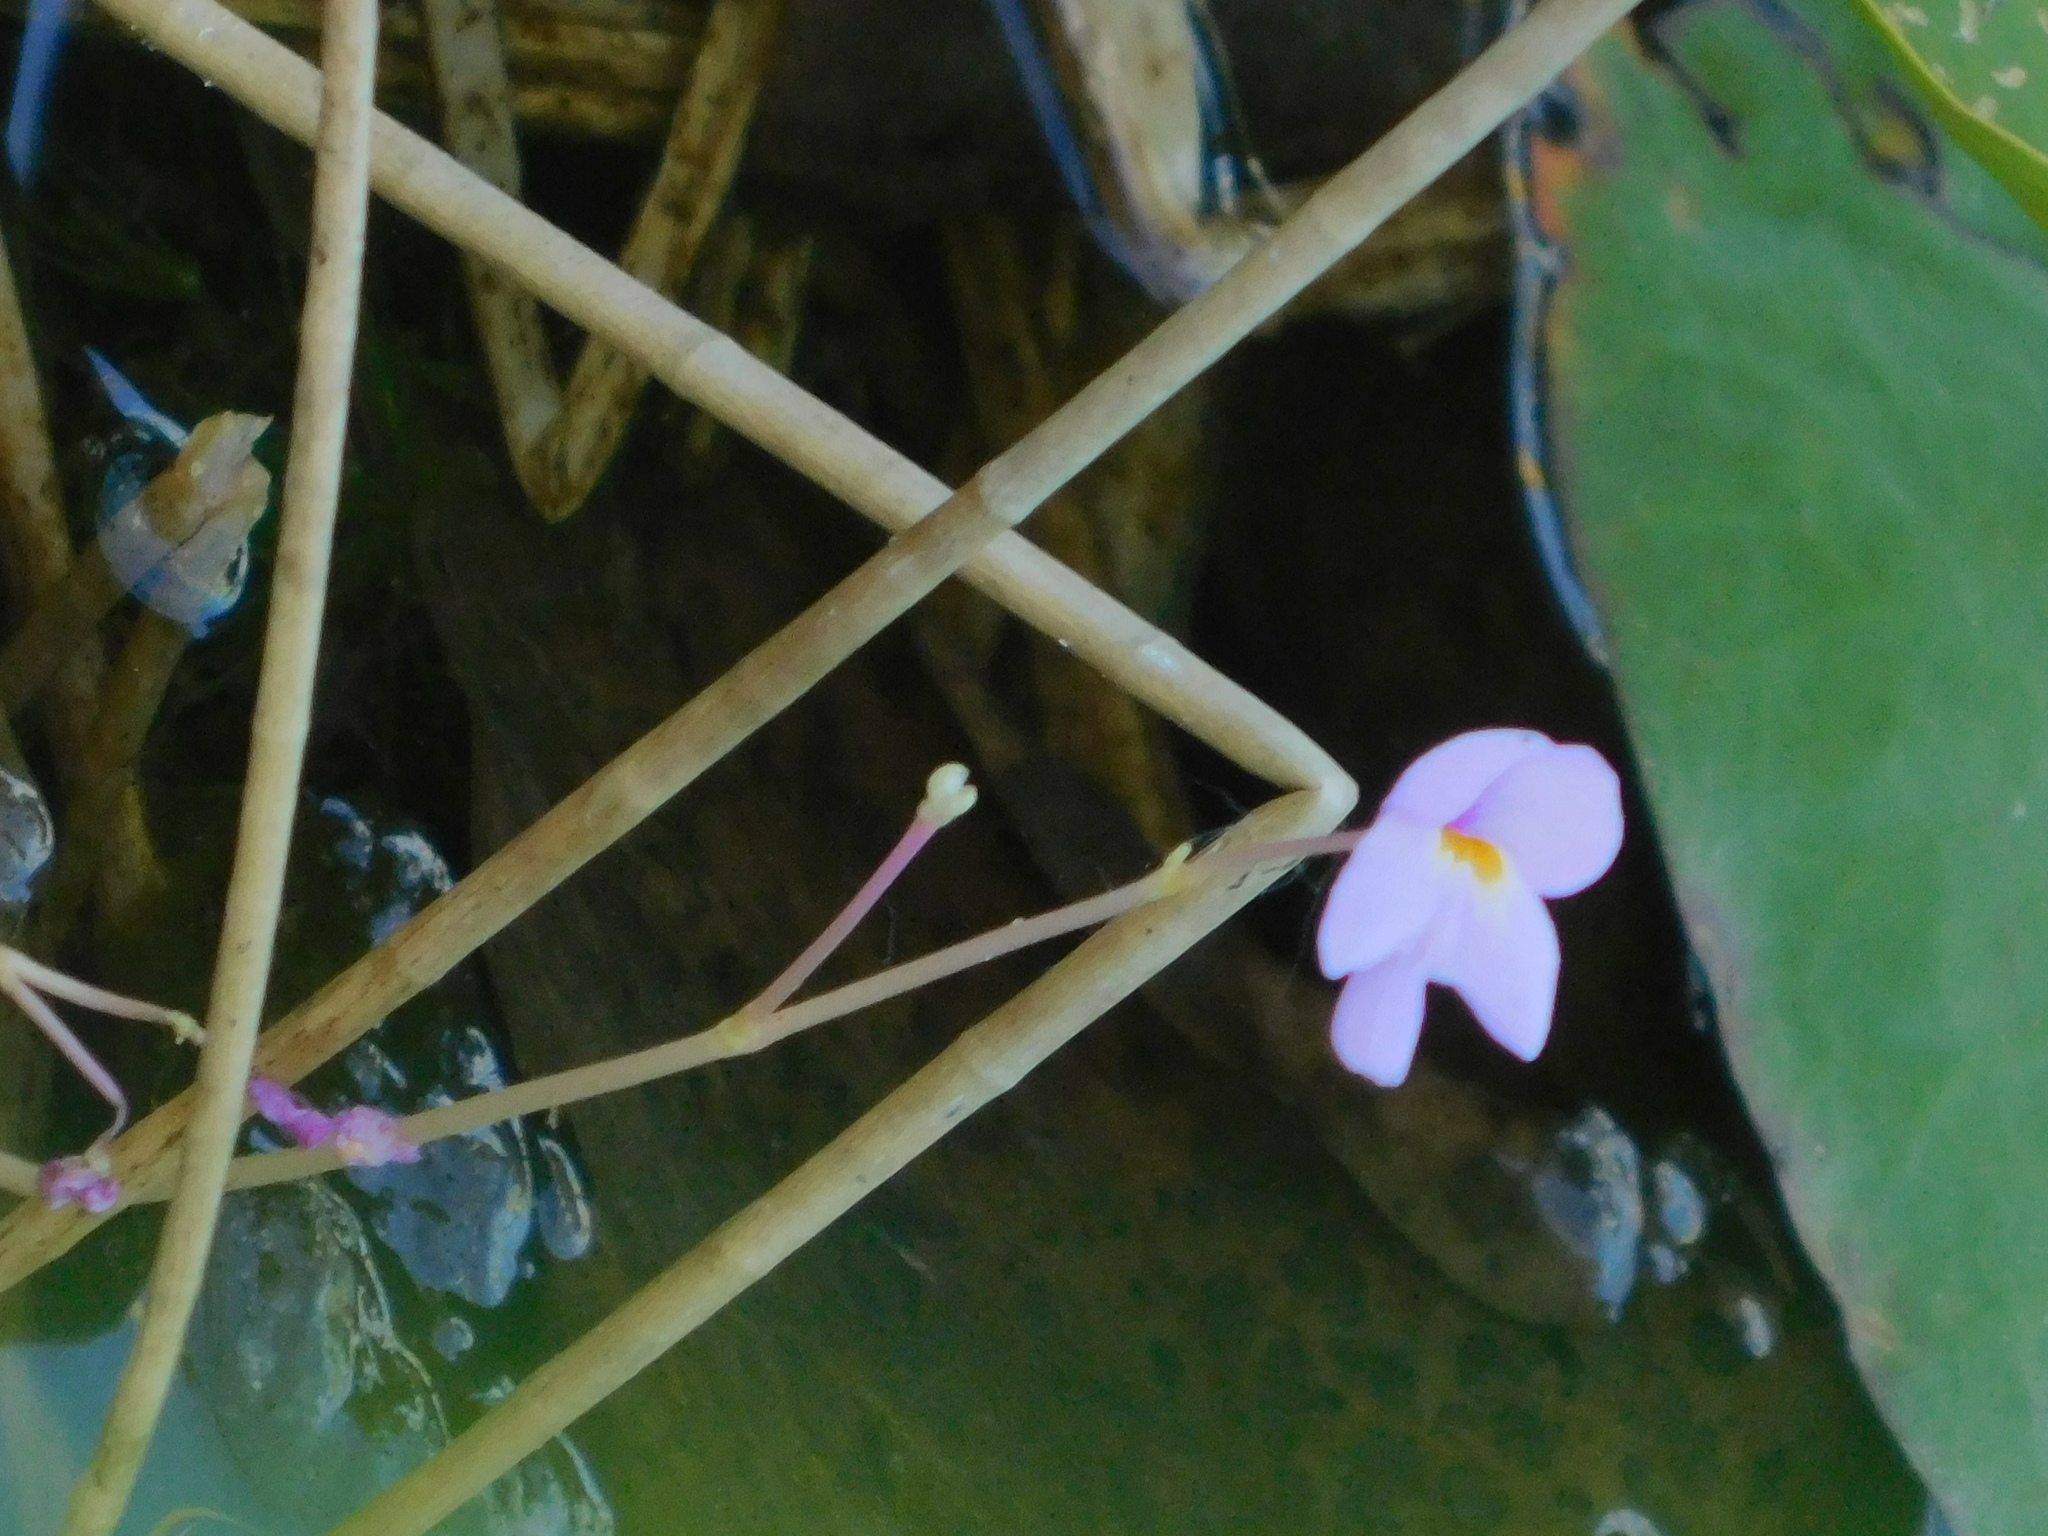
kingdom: Plantae
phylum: Tracheophyta
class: Magnoliopsida
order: Lamiales
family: Lentibulariaceae
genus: Utricularia
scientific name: Utricularia purpurea
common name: Eastern purple bladderwort
